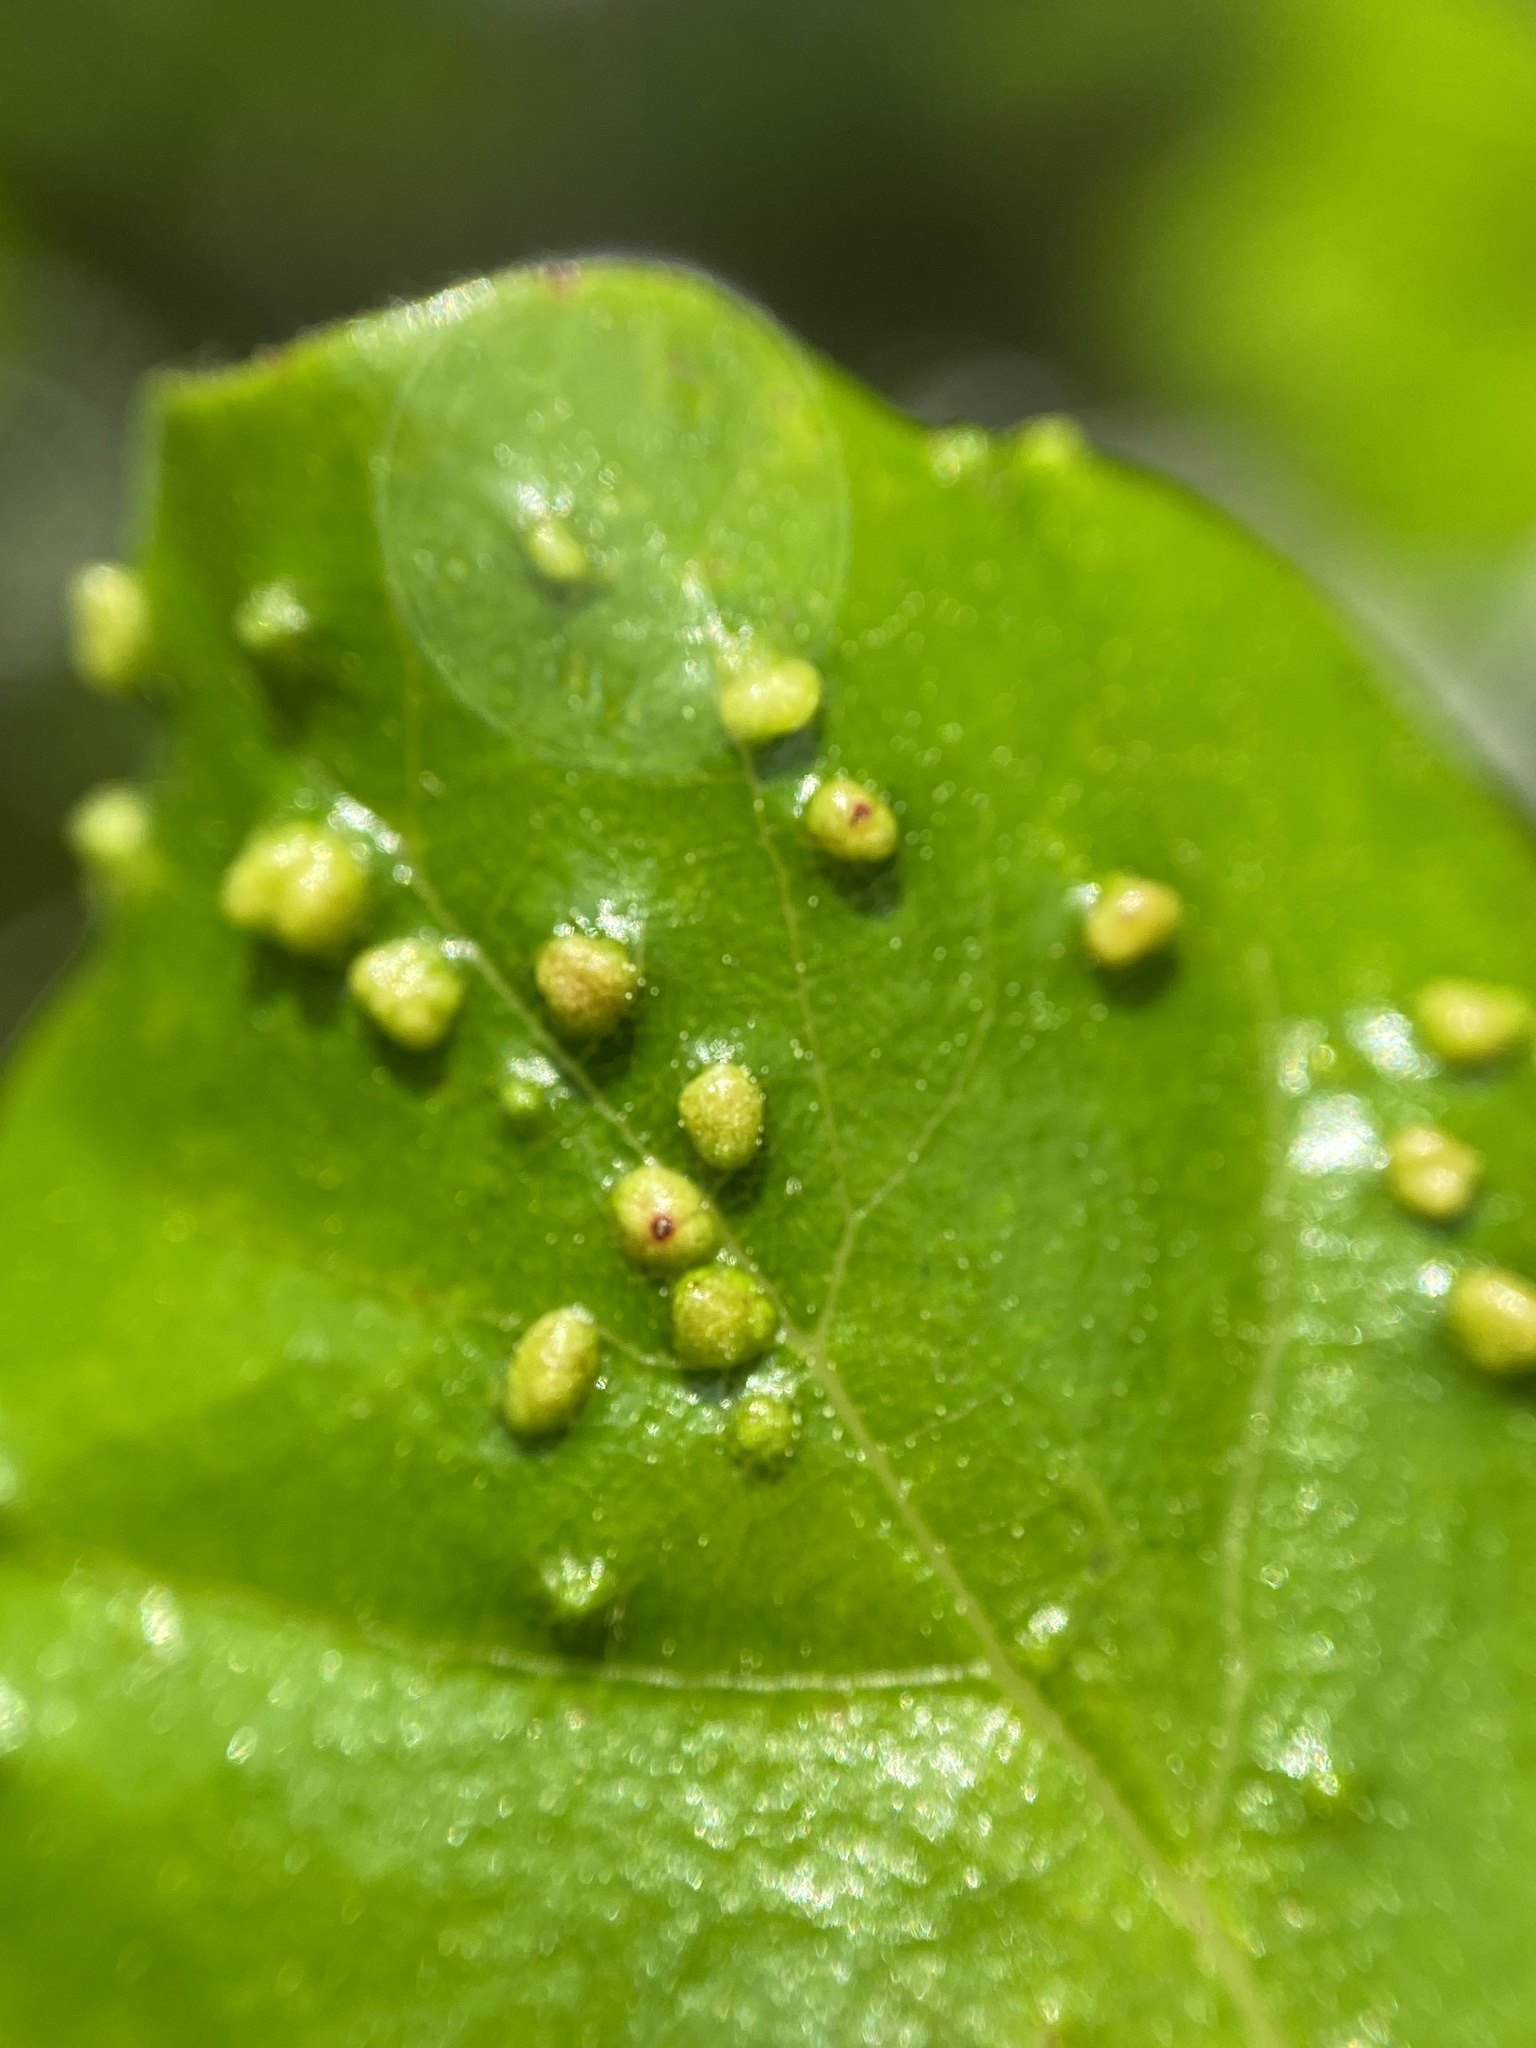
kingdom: Animalia
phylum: Arthropoda
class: Arachnida
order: Trombidiformes
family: Eriophyidae
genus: Aceria
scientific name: Aceria
